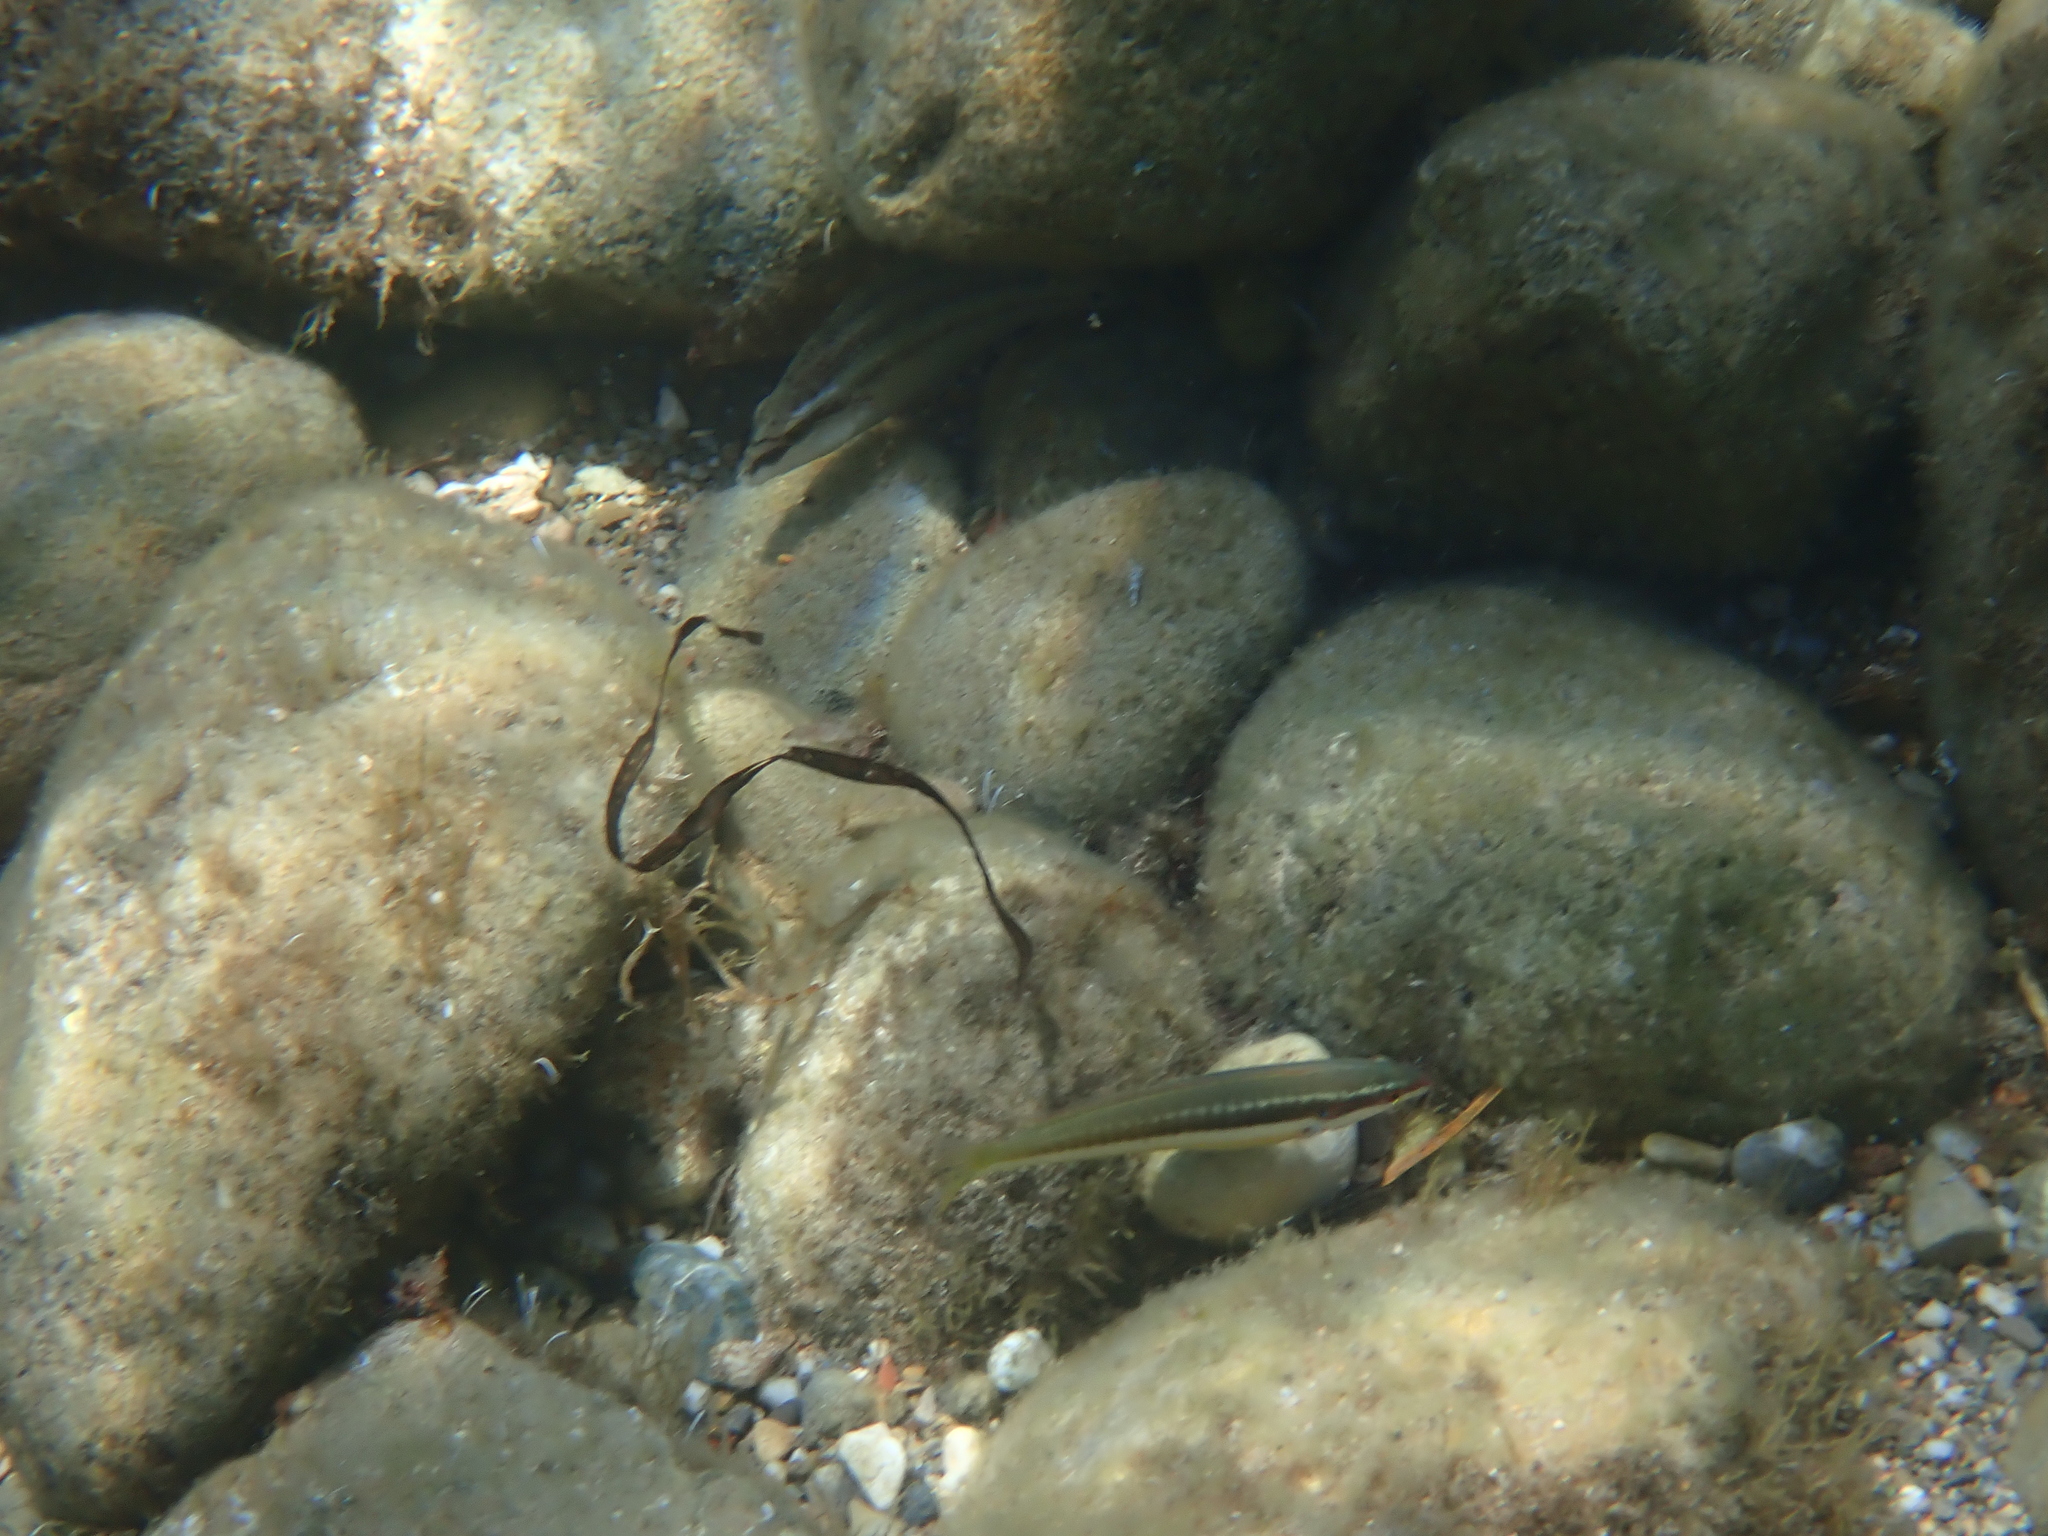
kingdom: Animalia
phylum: Chordata
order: Perciformes
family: Labridae
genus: Coris
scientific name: Coris julis
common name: Rainbow wrasse
